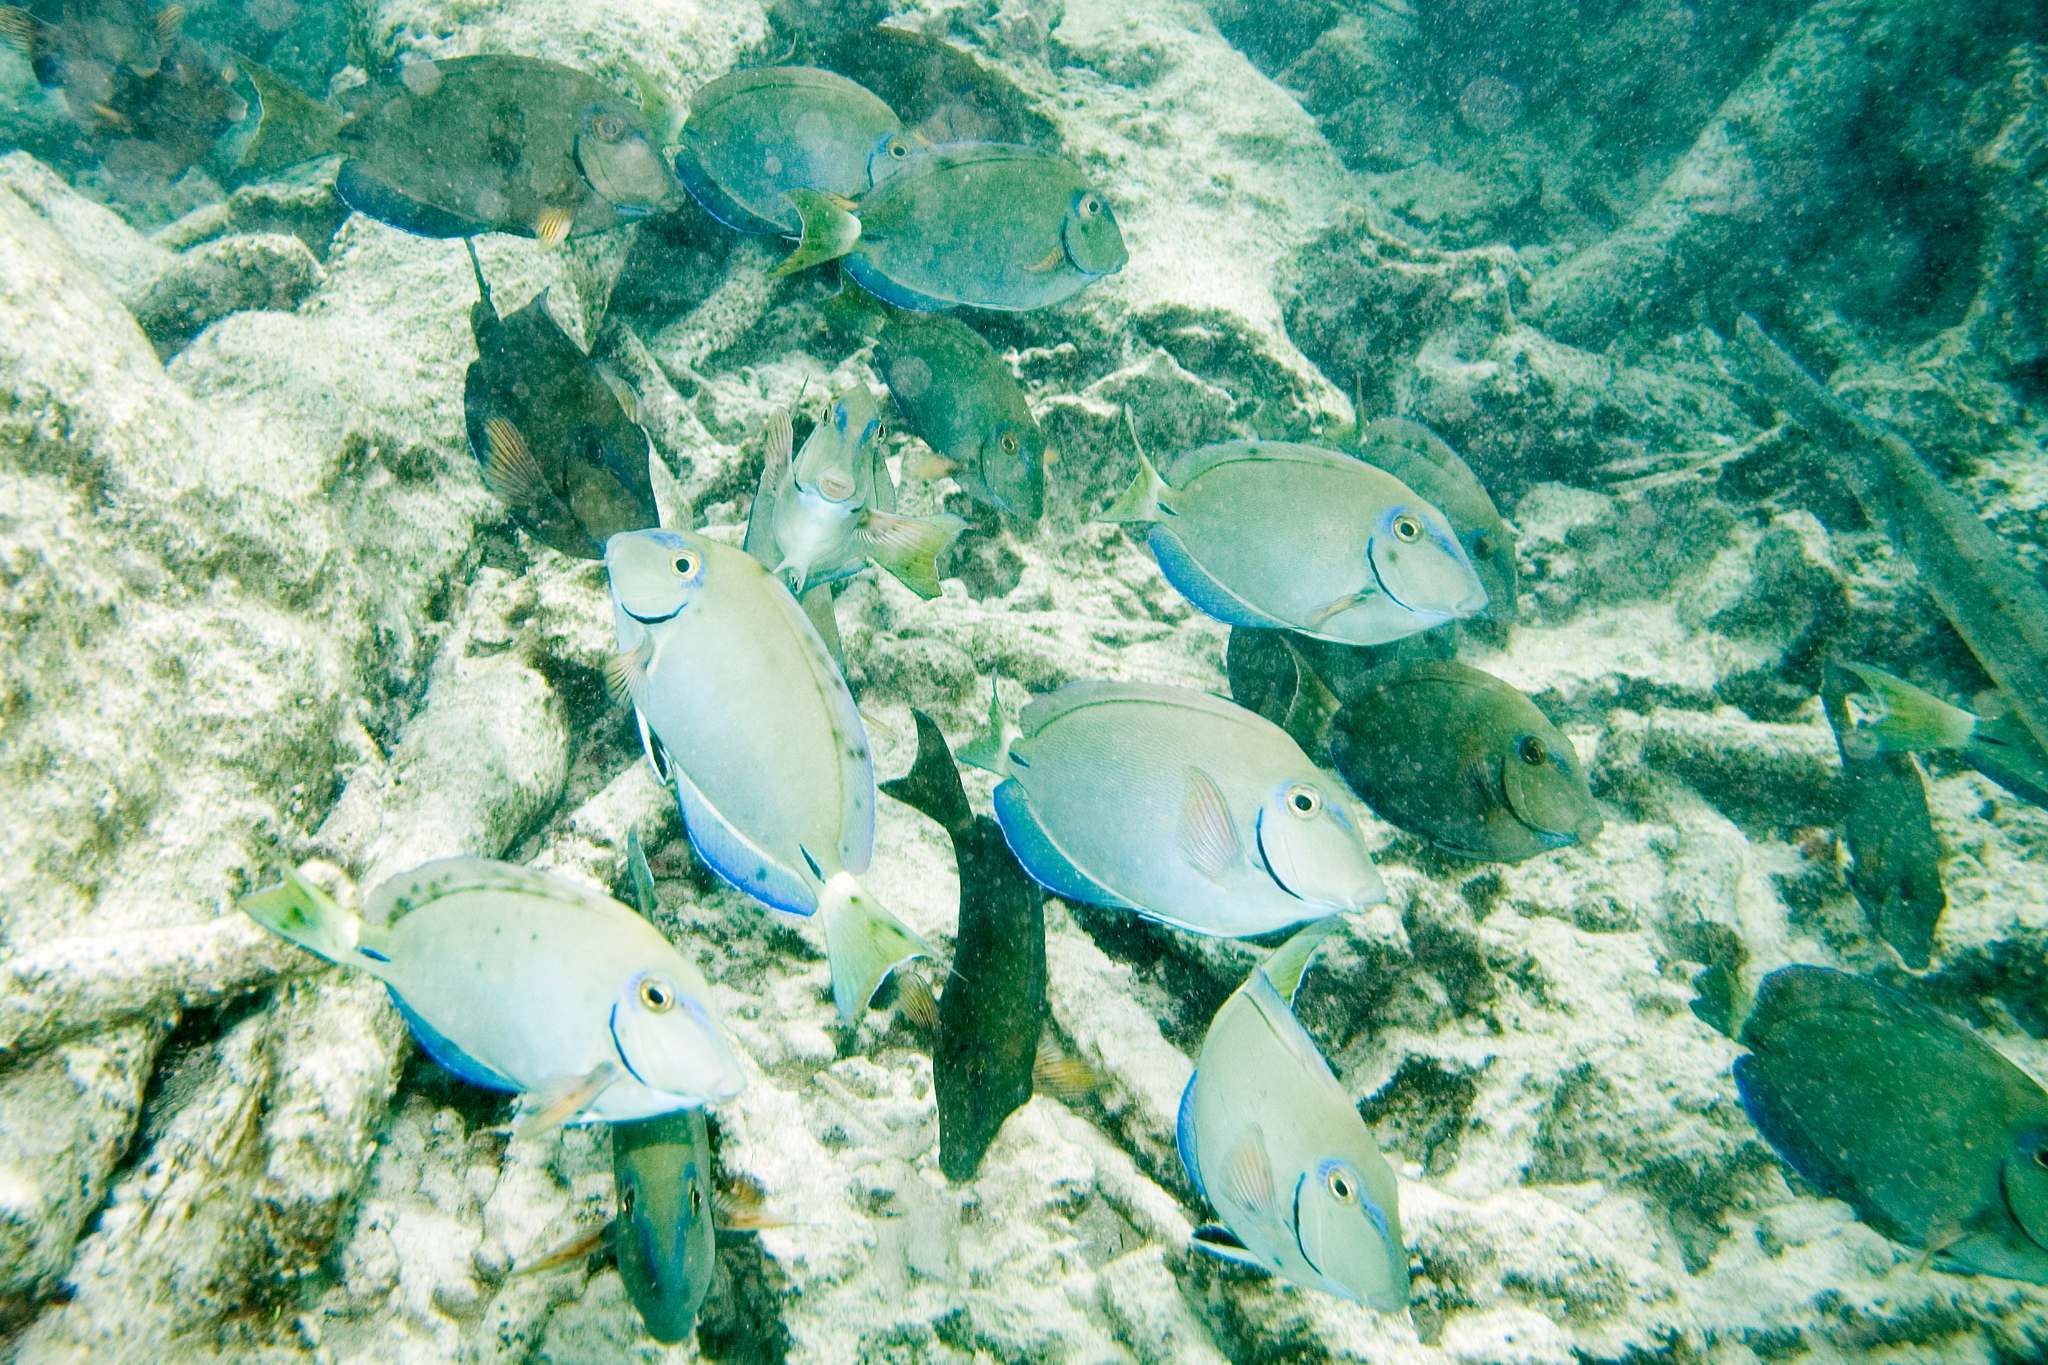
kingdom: Animalia
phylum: Chordata
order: Perciformes
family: Acanthuridae
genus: Acanthurus
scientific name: Acanthurus bahianus
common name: Ocean surgeon
